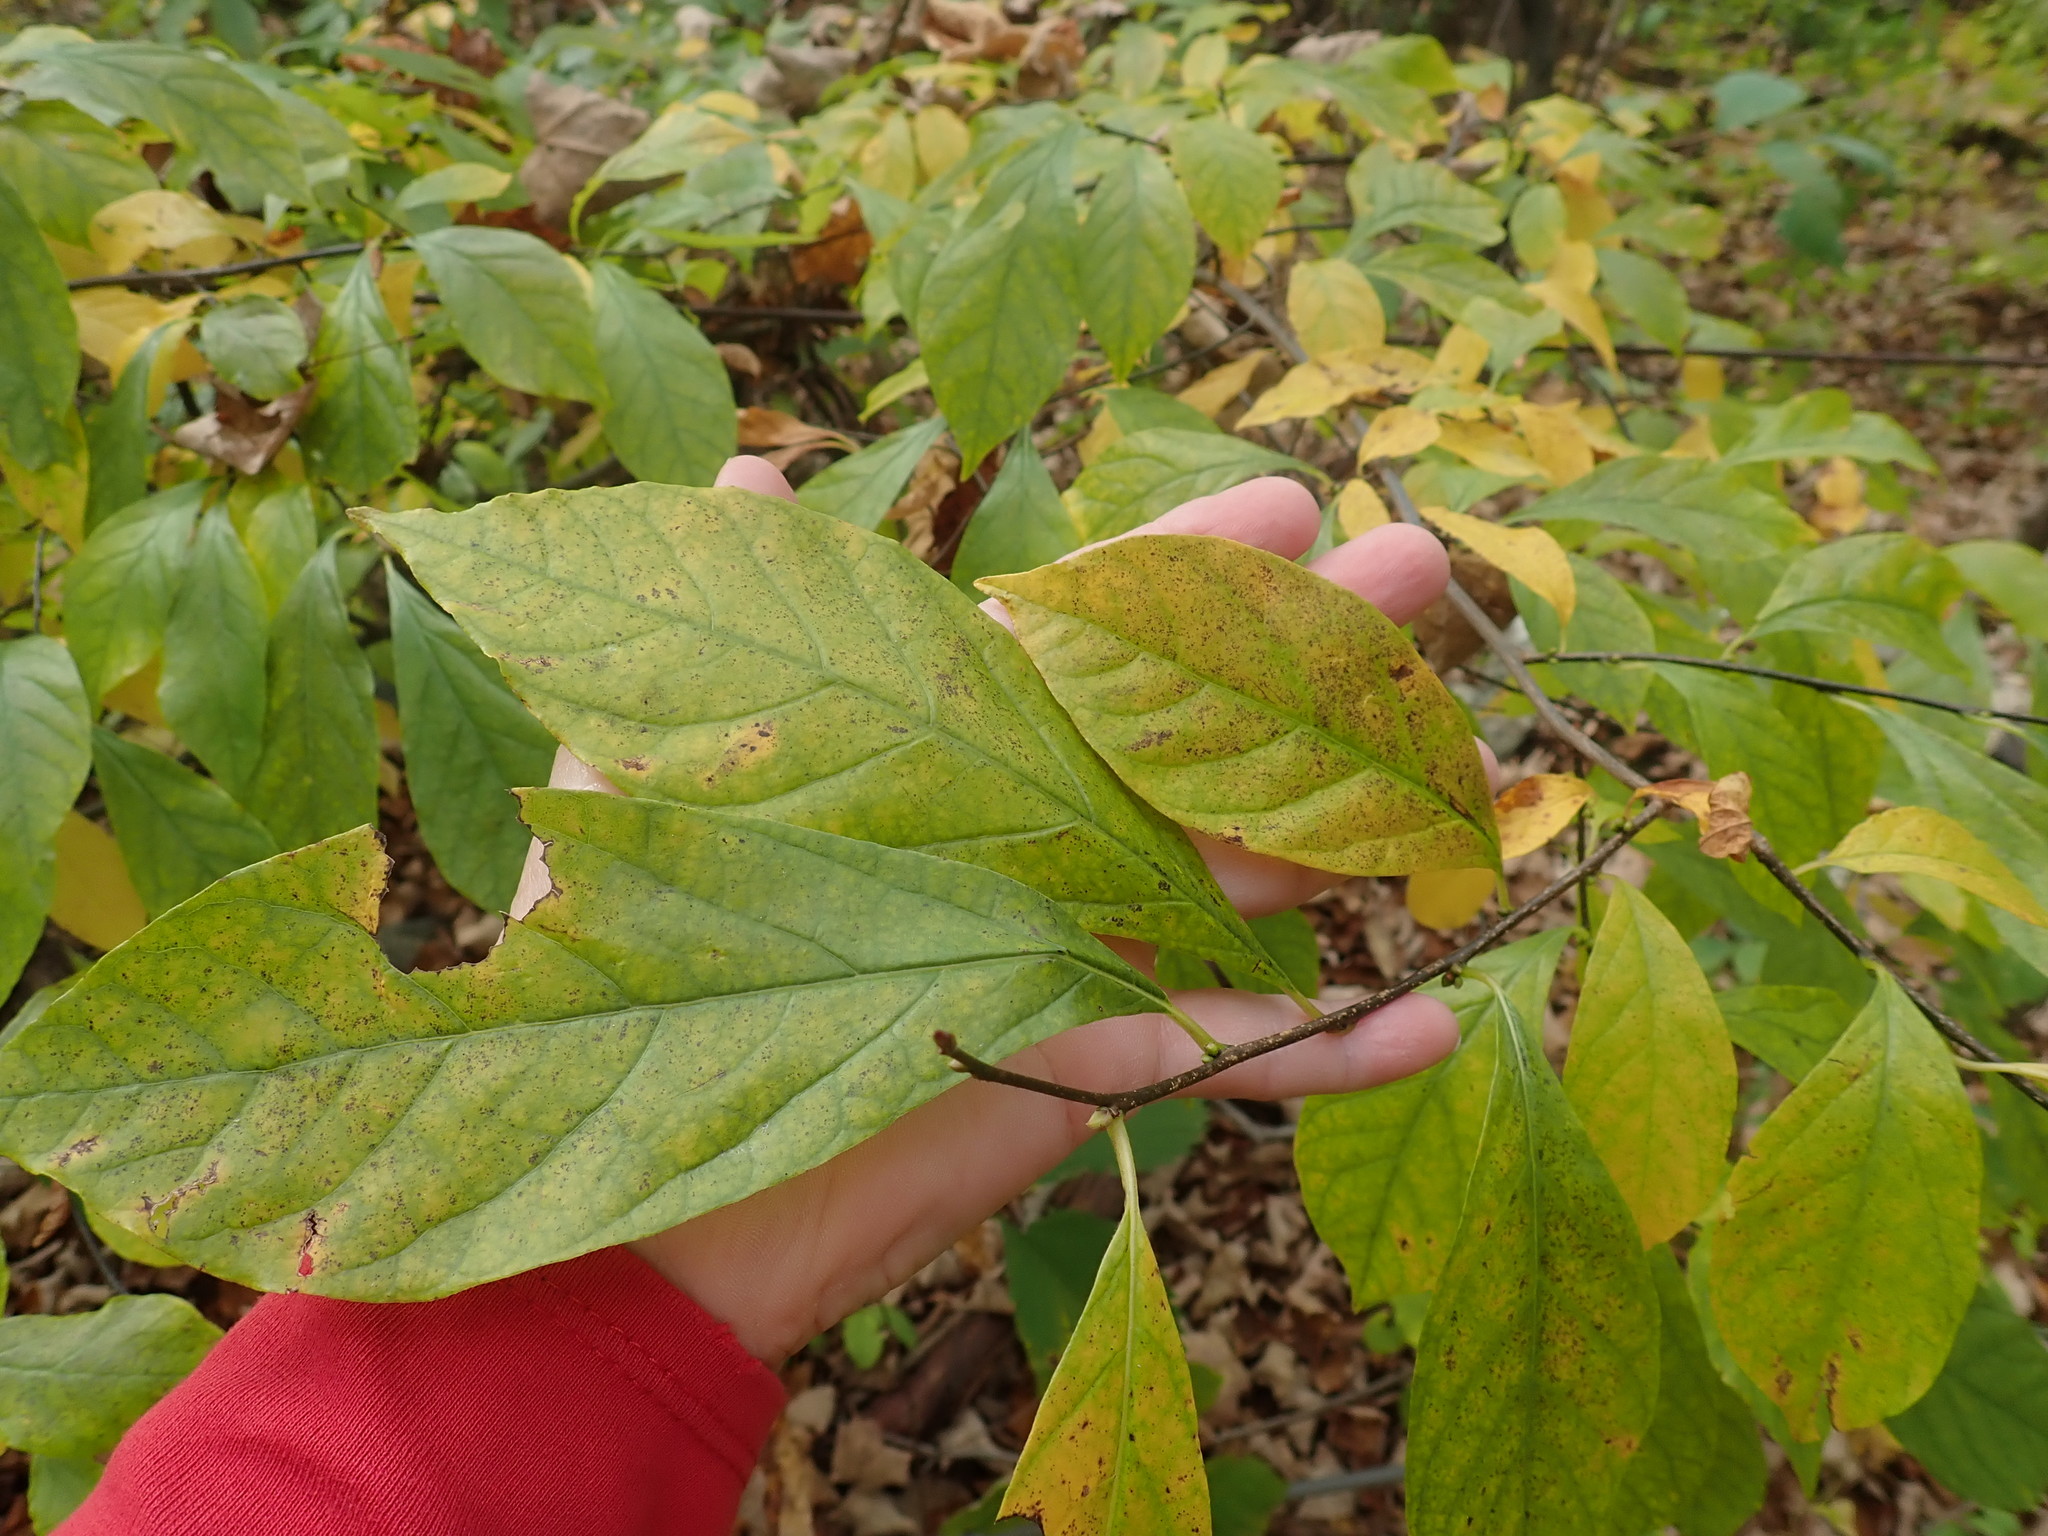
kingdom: Plantae
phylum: Tracheophyta
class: Magnoliopsida
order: Laurales
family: Lauraceae
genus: Lindera
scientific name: Lindera benzoin
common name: Spicebush
